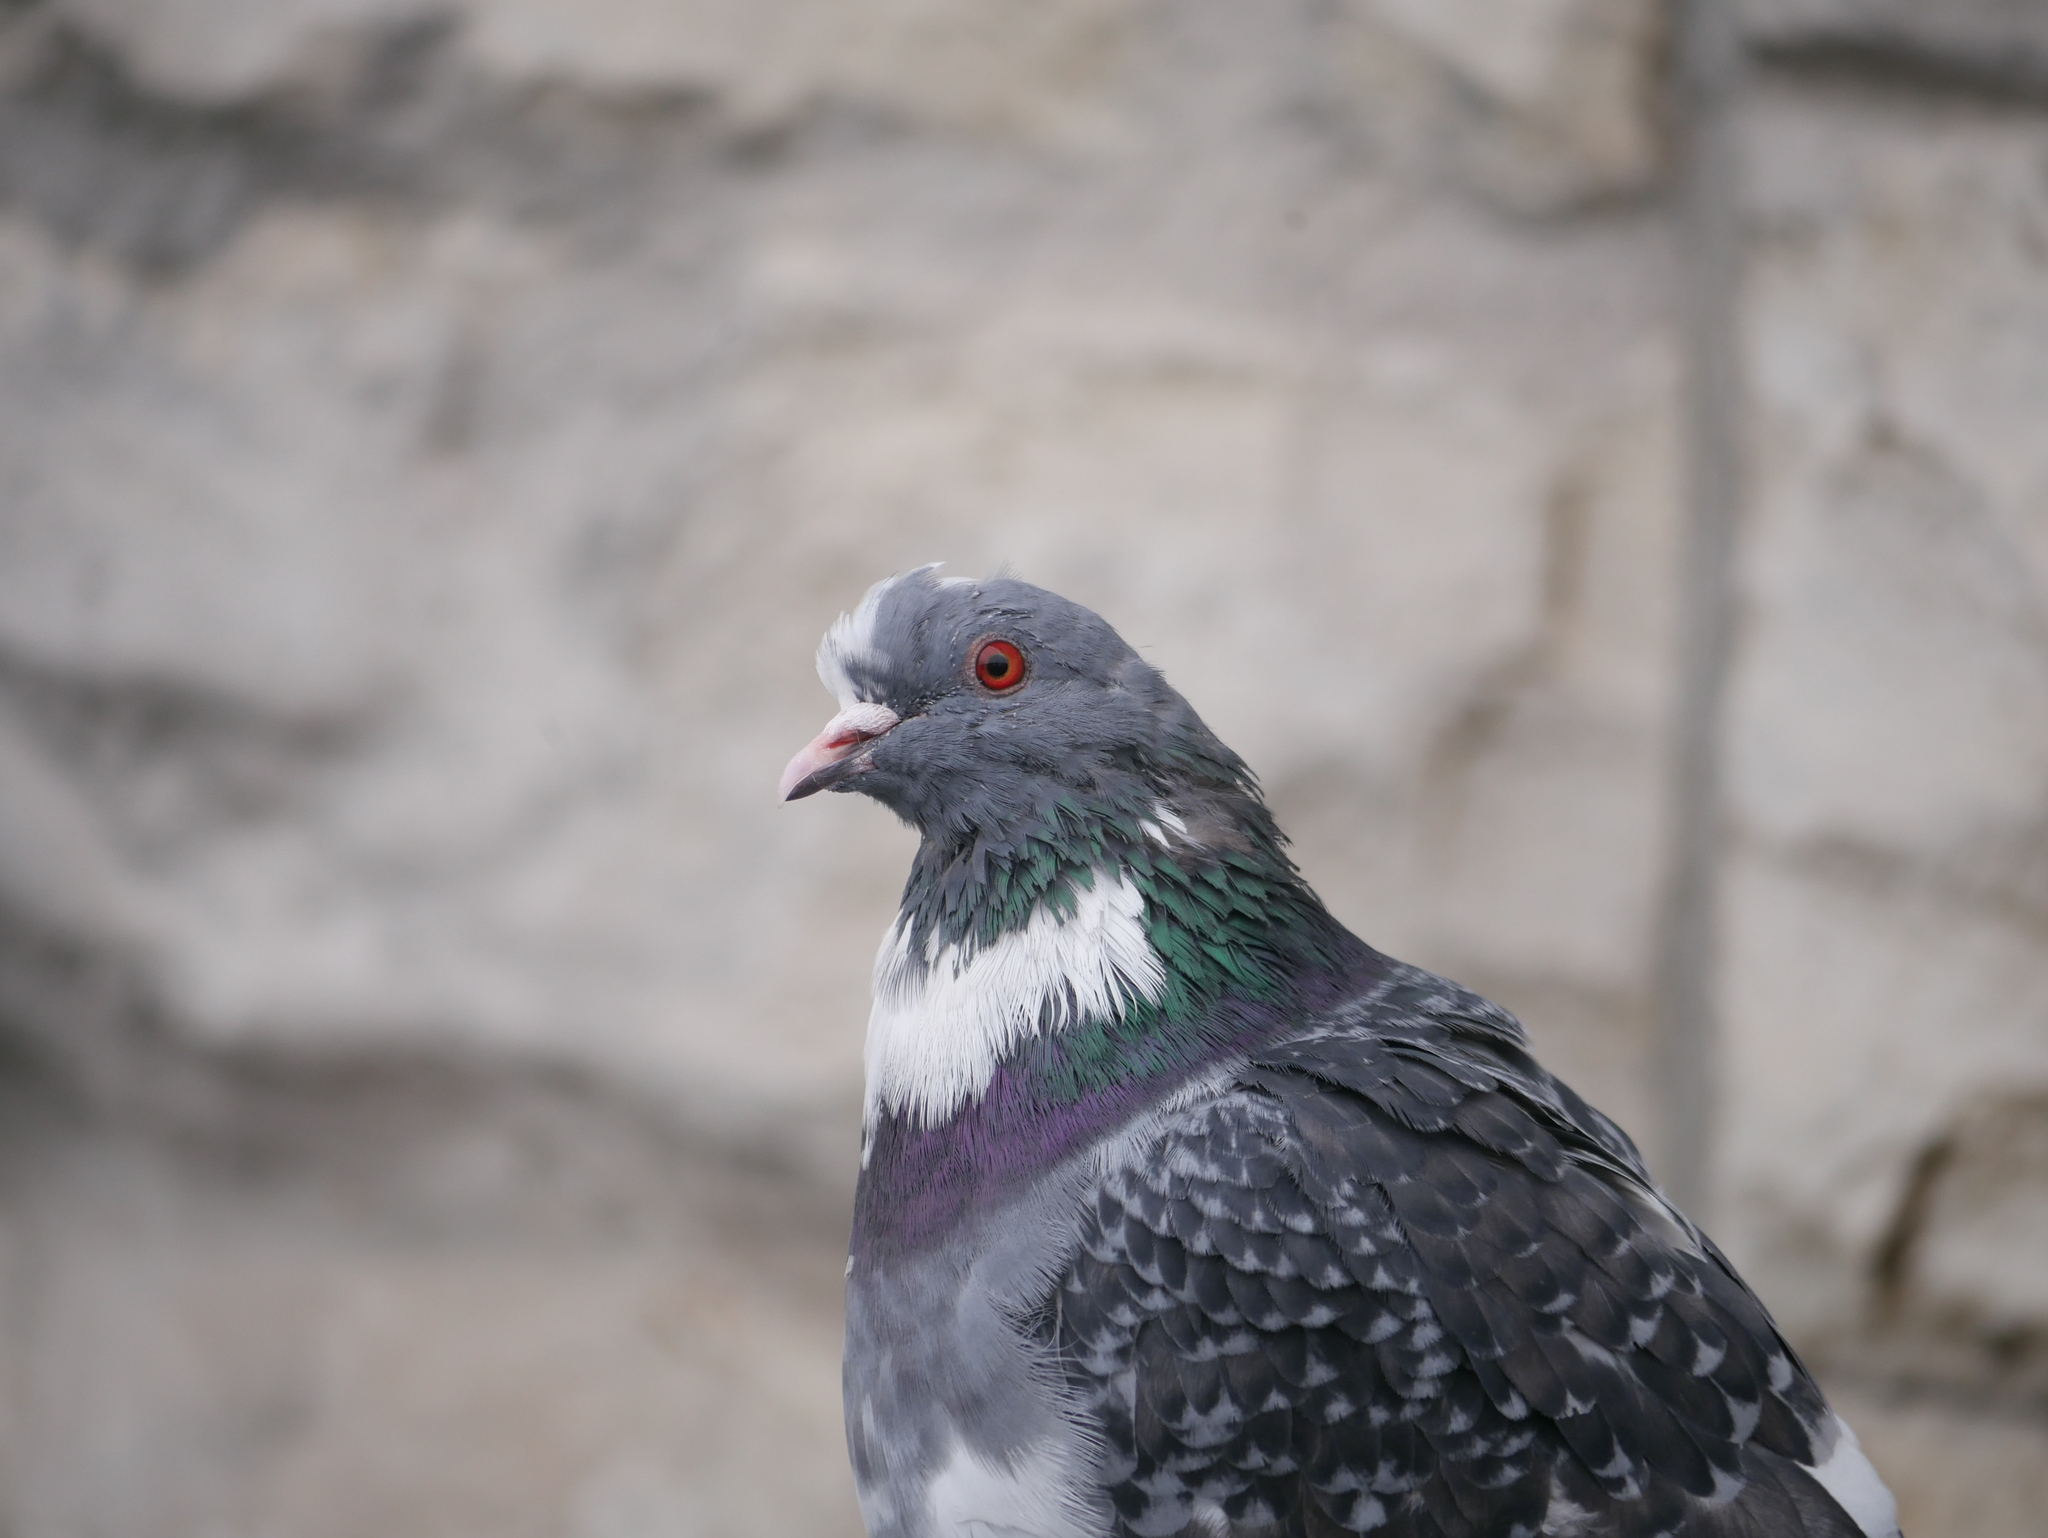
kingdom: Animalia
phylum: Chordata
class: Aves
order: Columbiformes
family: Columbidae
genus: Columba
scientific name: Columba livia
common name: Rock pigeon
